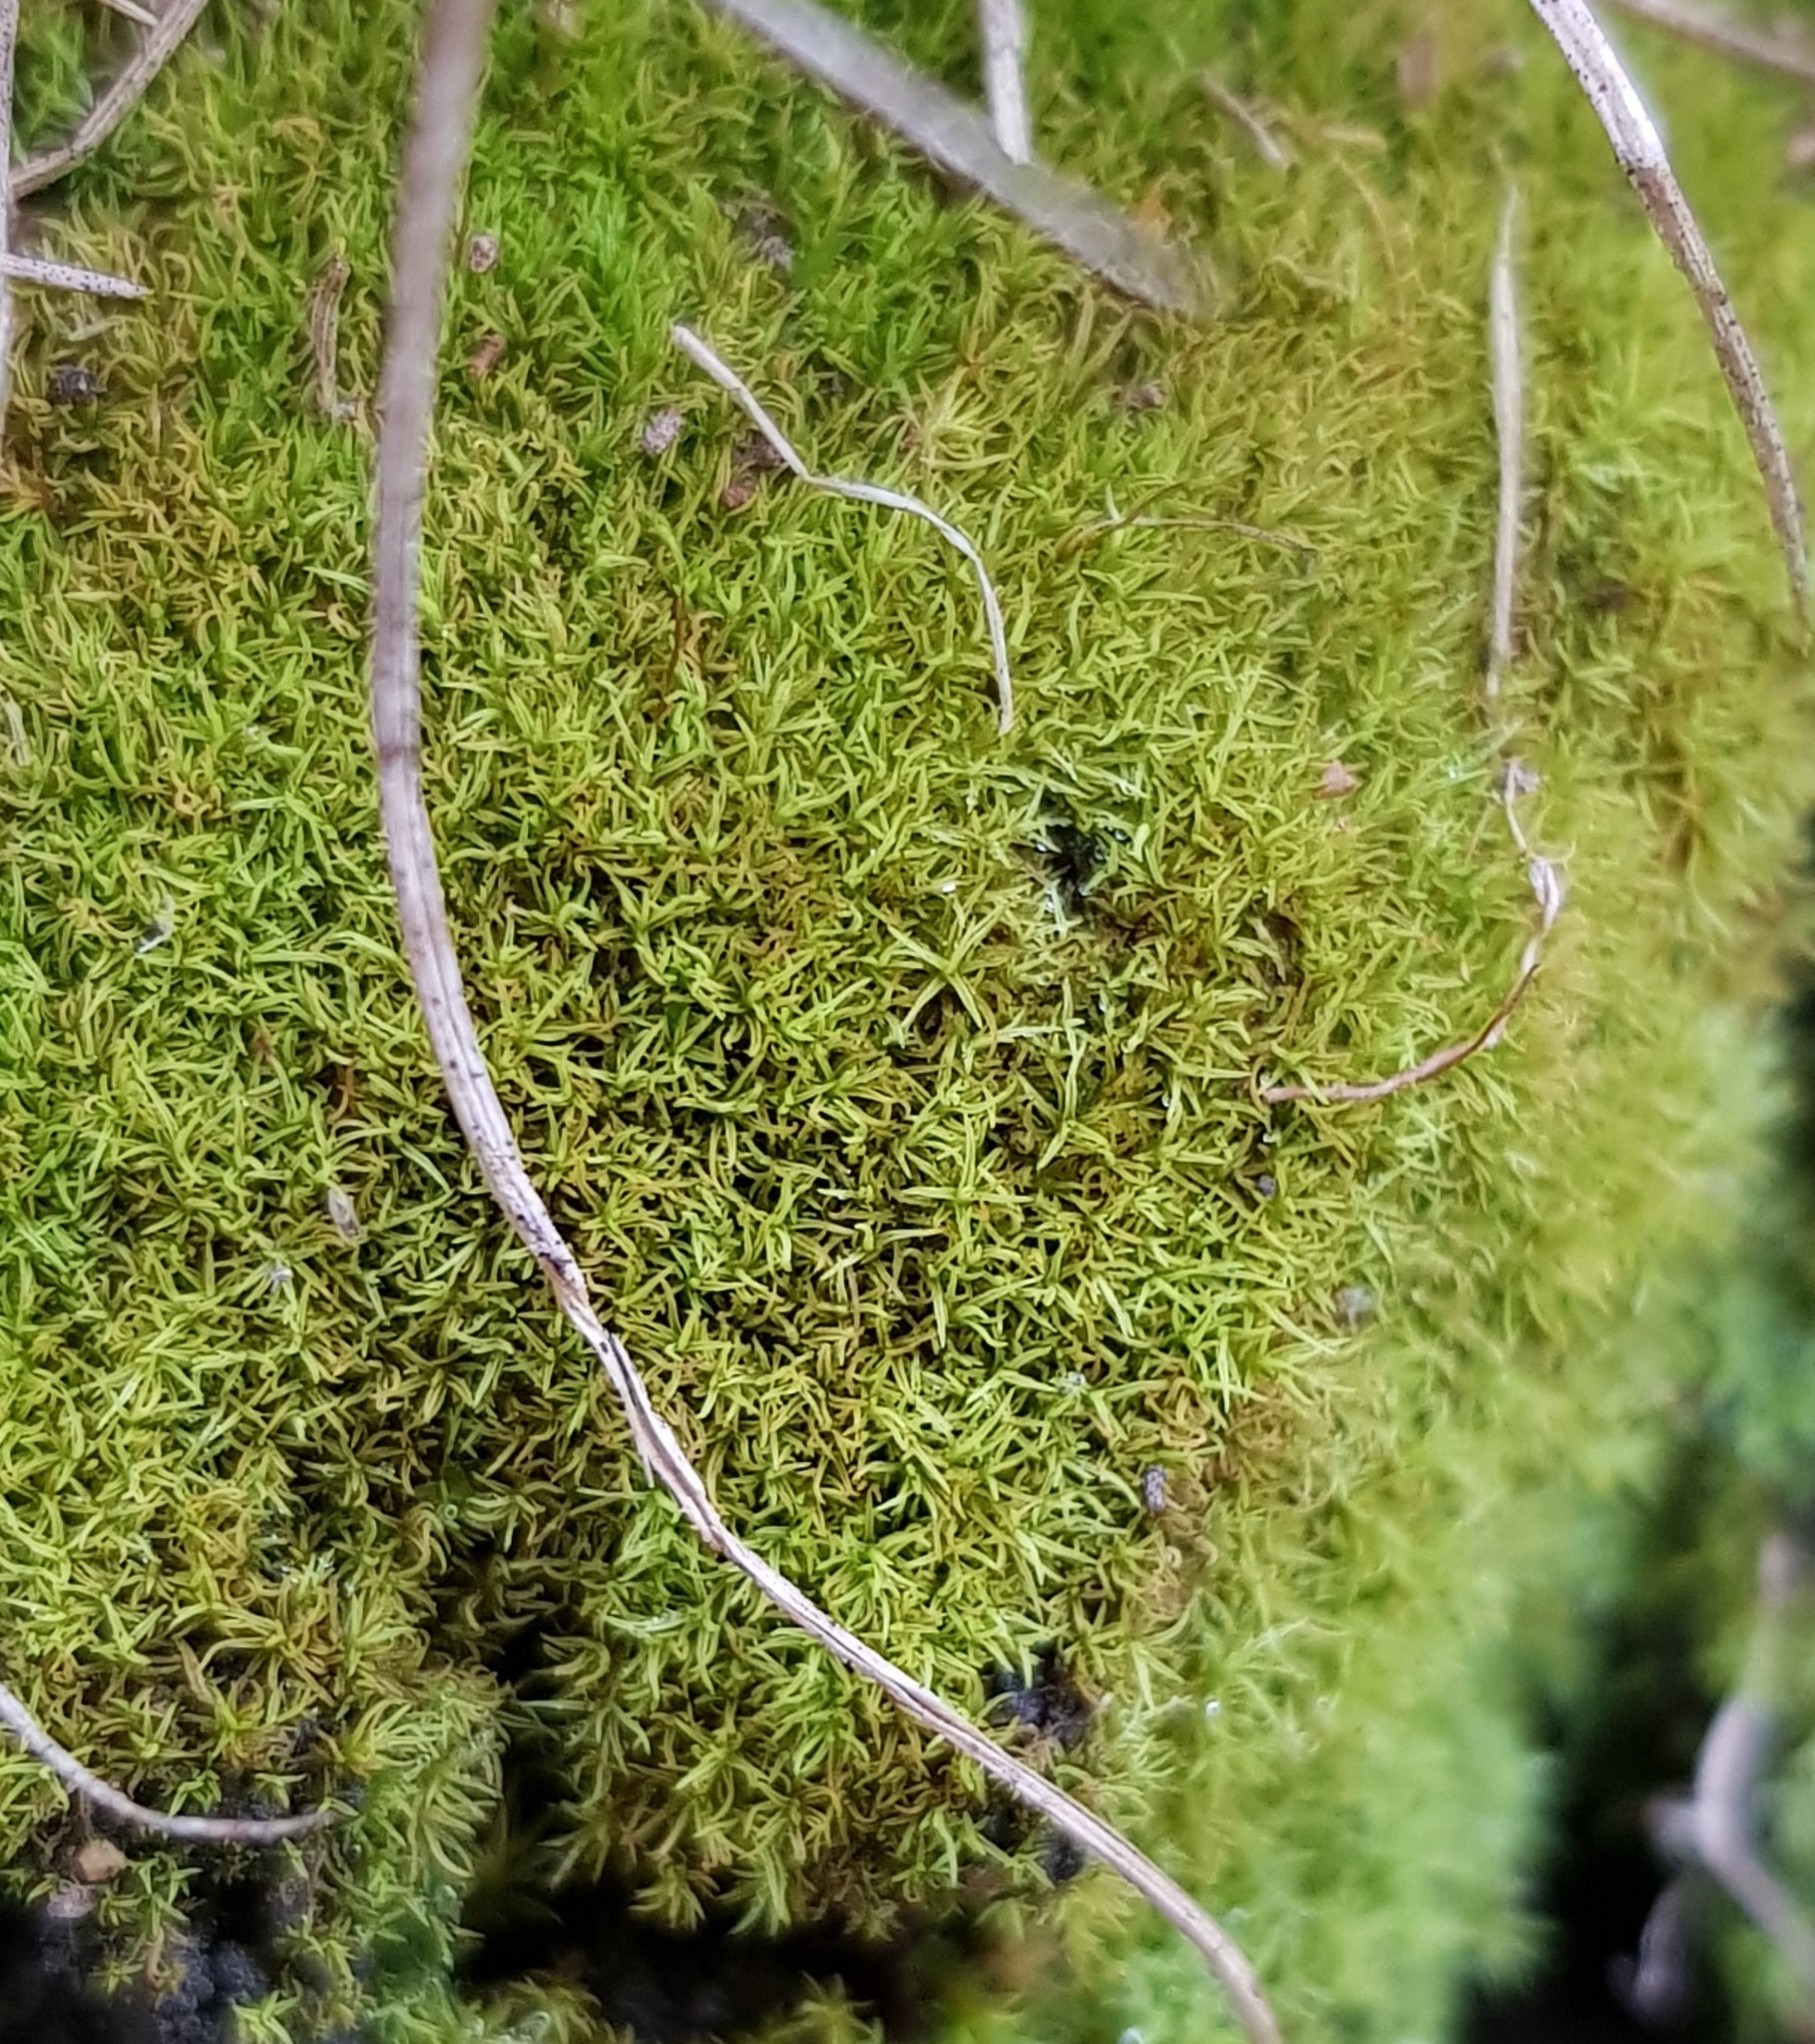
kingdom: Plantae
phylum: Bryophyta
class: Bryopsida
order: Pottiales
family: Pottiaceae
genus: Trichostomum
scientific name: Trichostomum crispulum
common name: Curly crisp-moss
